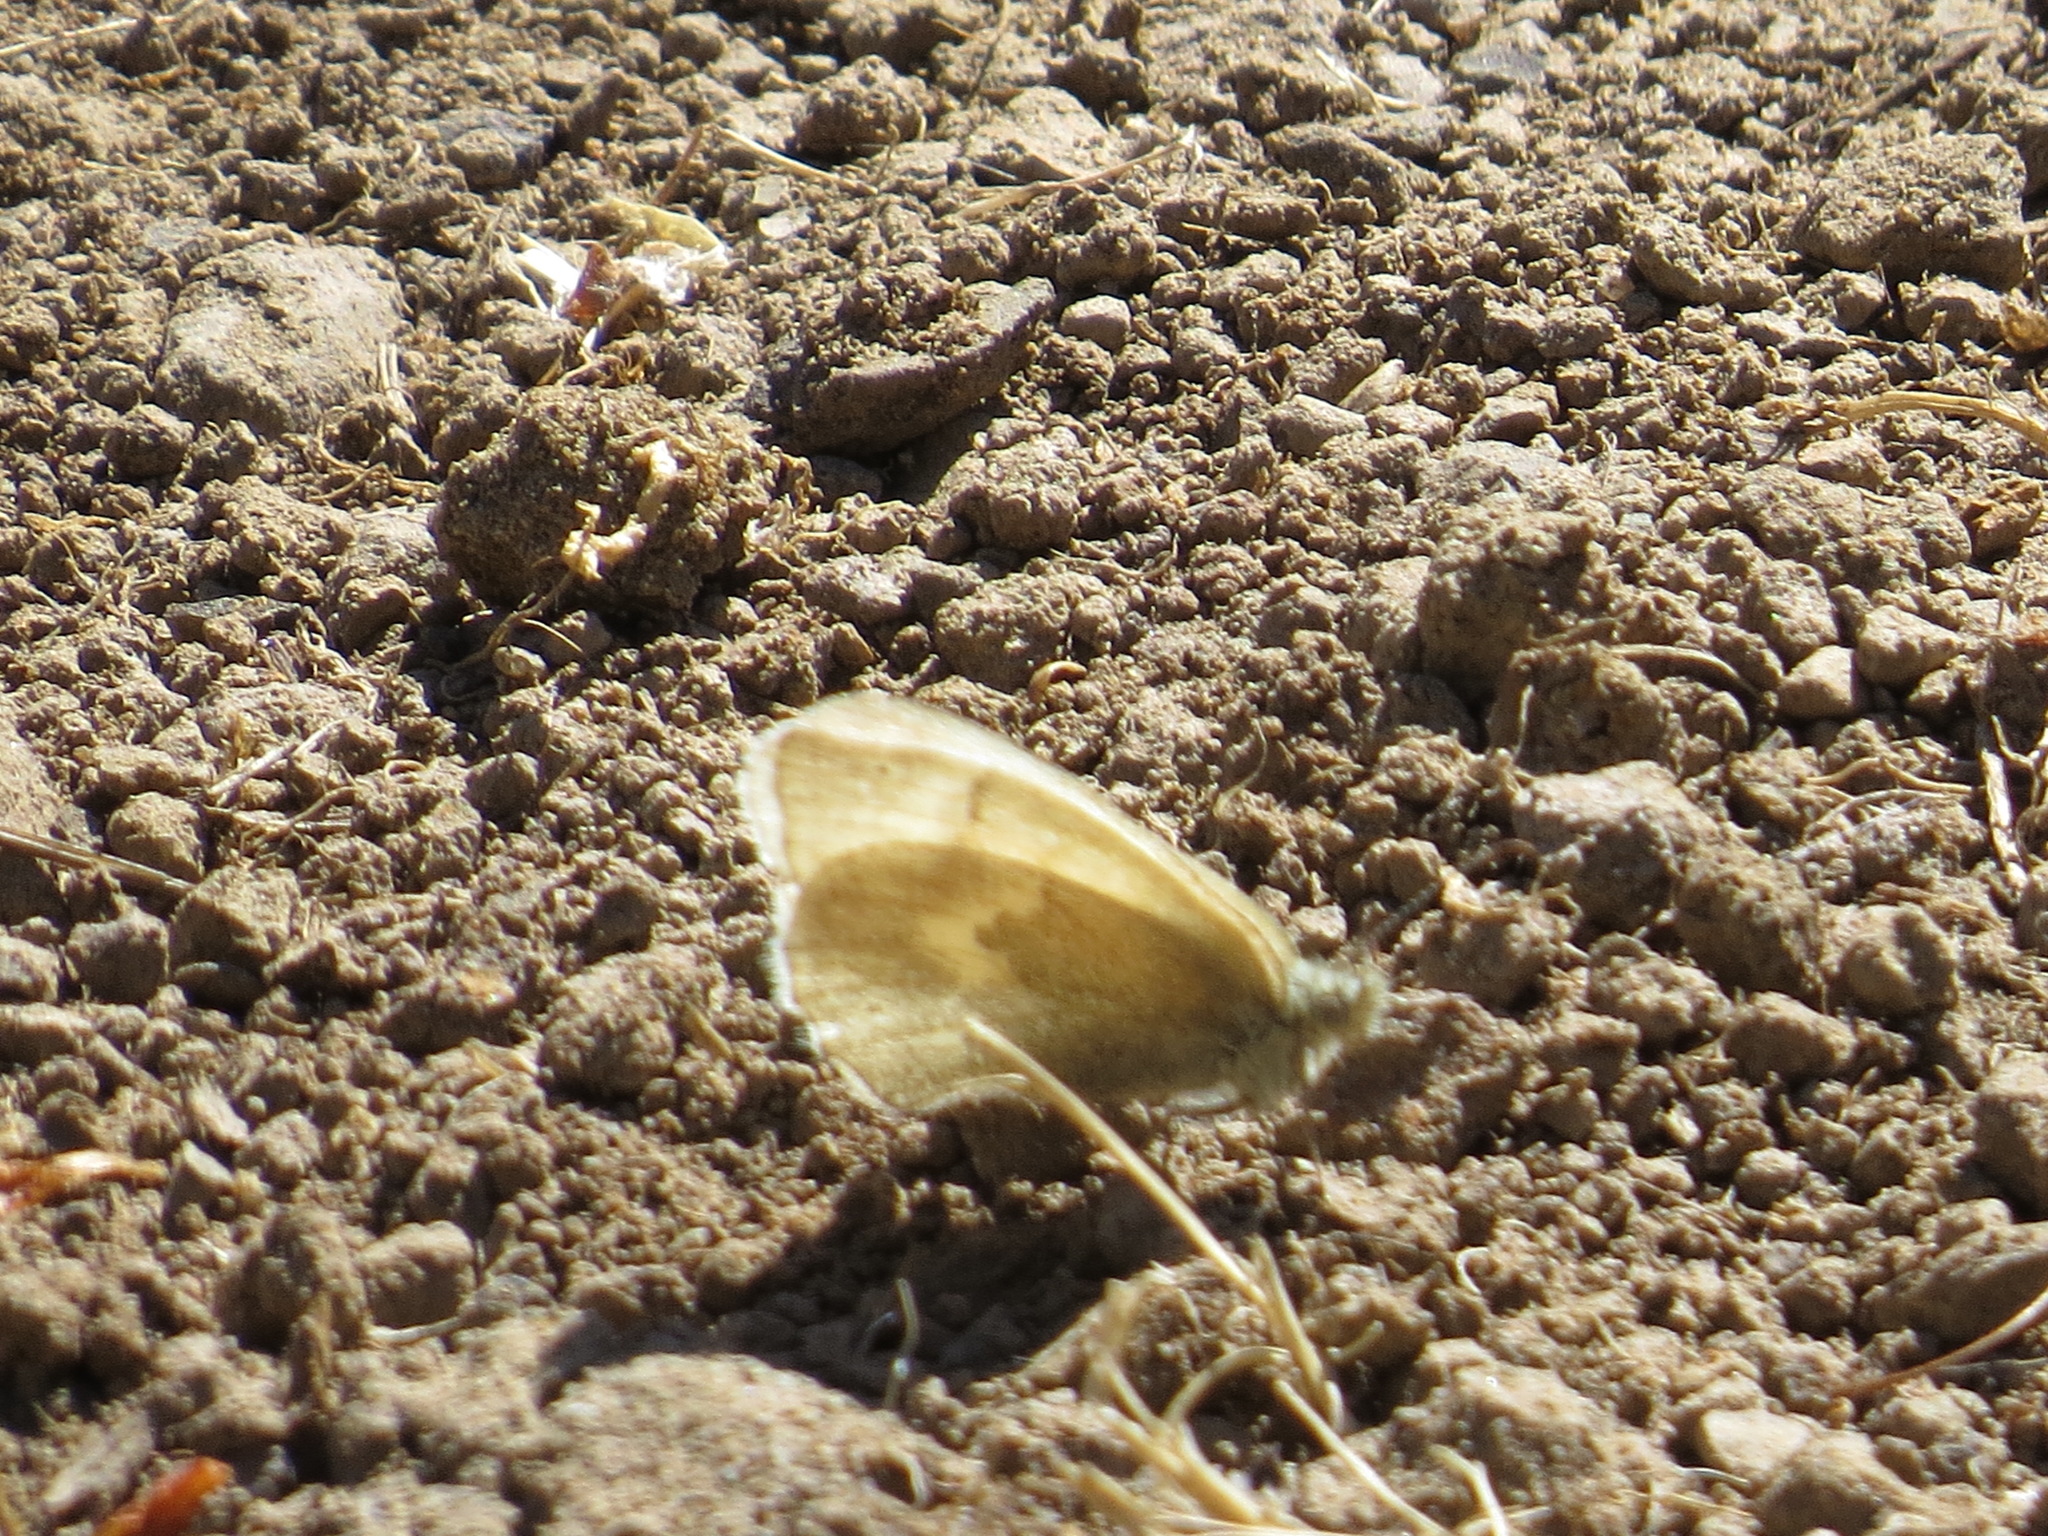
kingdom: Animalia
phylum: Arthropoda
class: Insecta
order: Lepidoptera
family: Nymphalidae
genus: Coenonympha
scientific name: Coenonympha california
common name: Common ringlet
